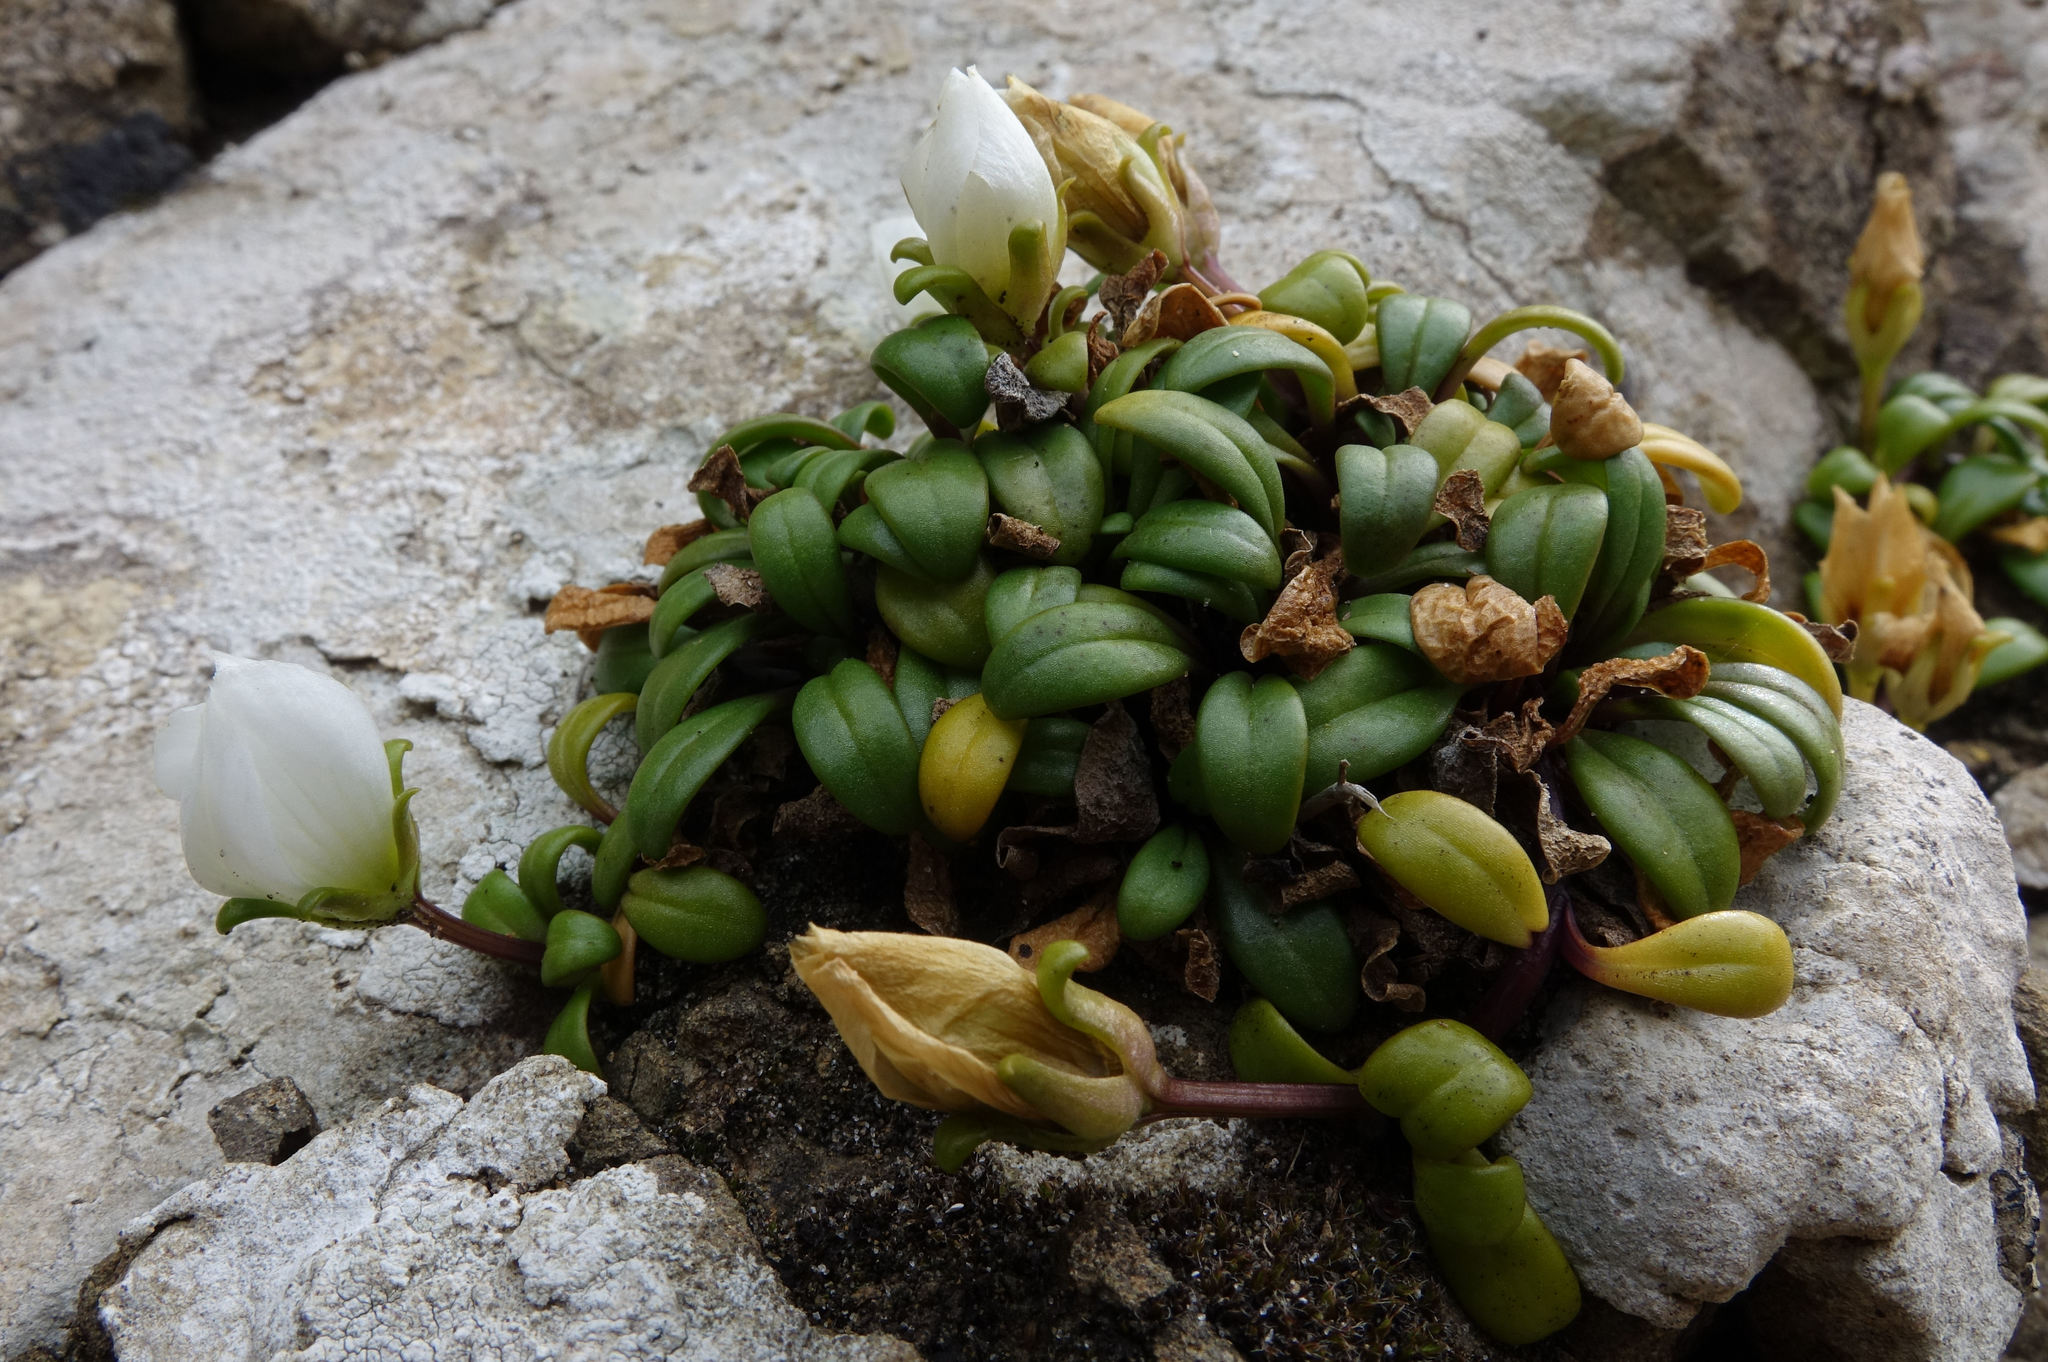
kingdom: Plantae
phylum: Tracheophyta
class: Magnoliopsida
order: Gentianales
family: Gentianaceae
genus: Gentianella
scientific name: Gentianella saxosa
